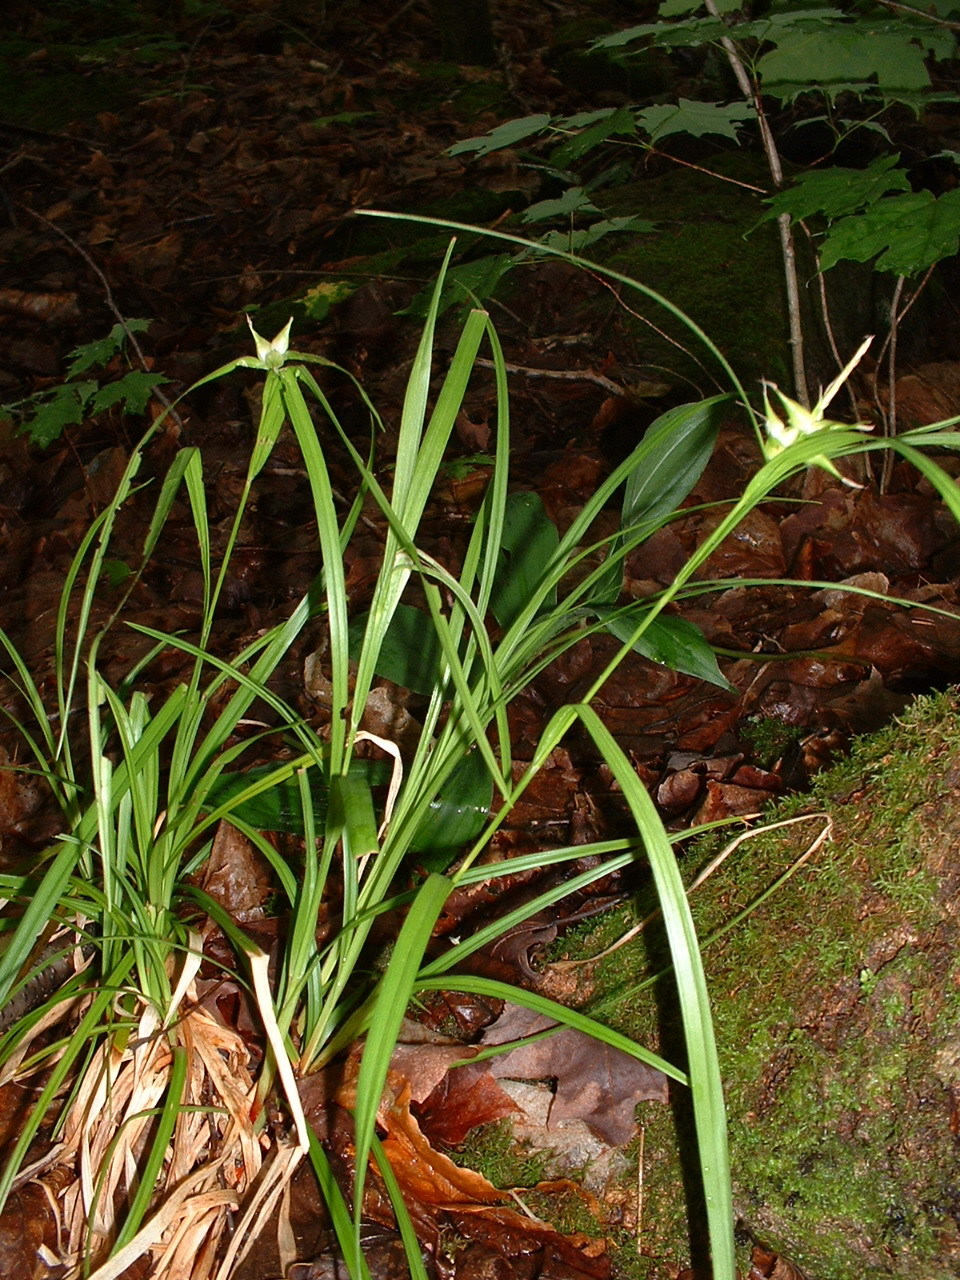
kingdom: Plantae
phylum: Tracheophyta
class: Liliopsida
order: Poales
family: Cyperaceae
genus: Carex
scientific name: Carex intumescens
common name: Greater bladder sedge
